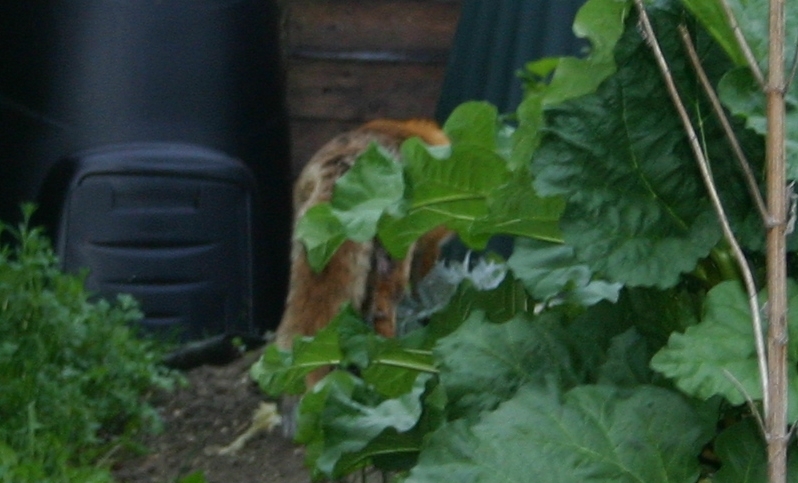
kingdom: Animalia
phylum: Chordata
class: Mammalia
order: Carnivora
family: Canidae
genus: Vulpes
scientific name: Vulpes vulpes
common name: Red fox
